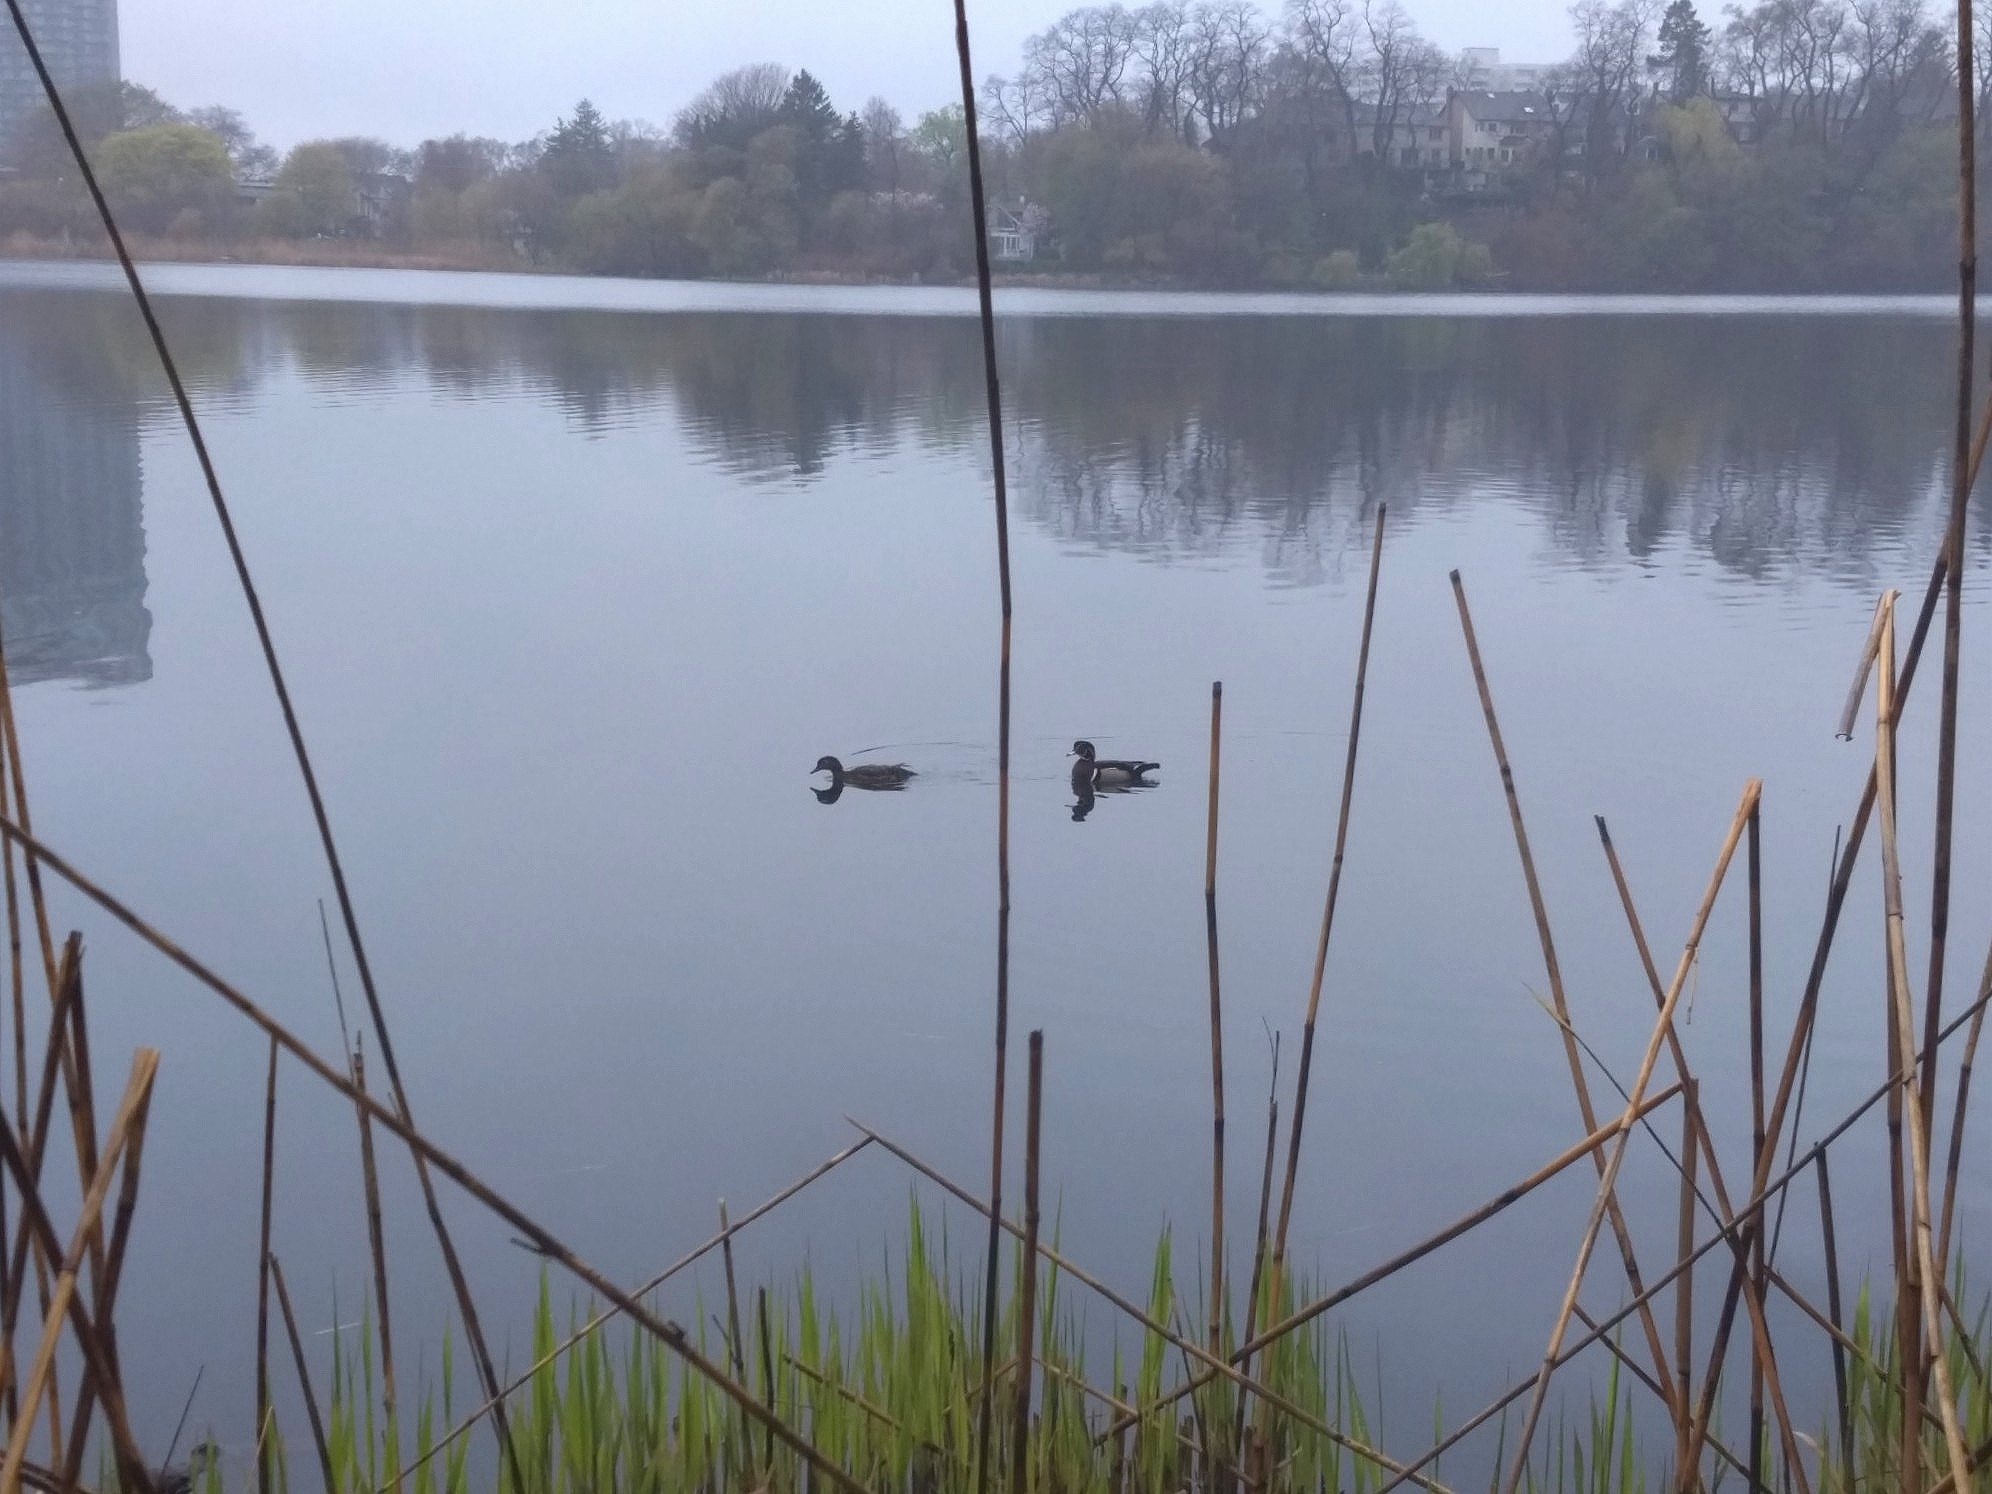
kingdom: Animalia
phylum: Chordata
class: Aves
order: Anseriformes
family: Anatidae
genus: Aix
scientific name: Aix sponsa
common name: Wood duck
